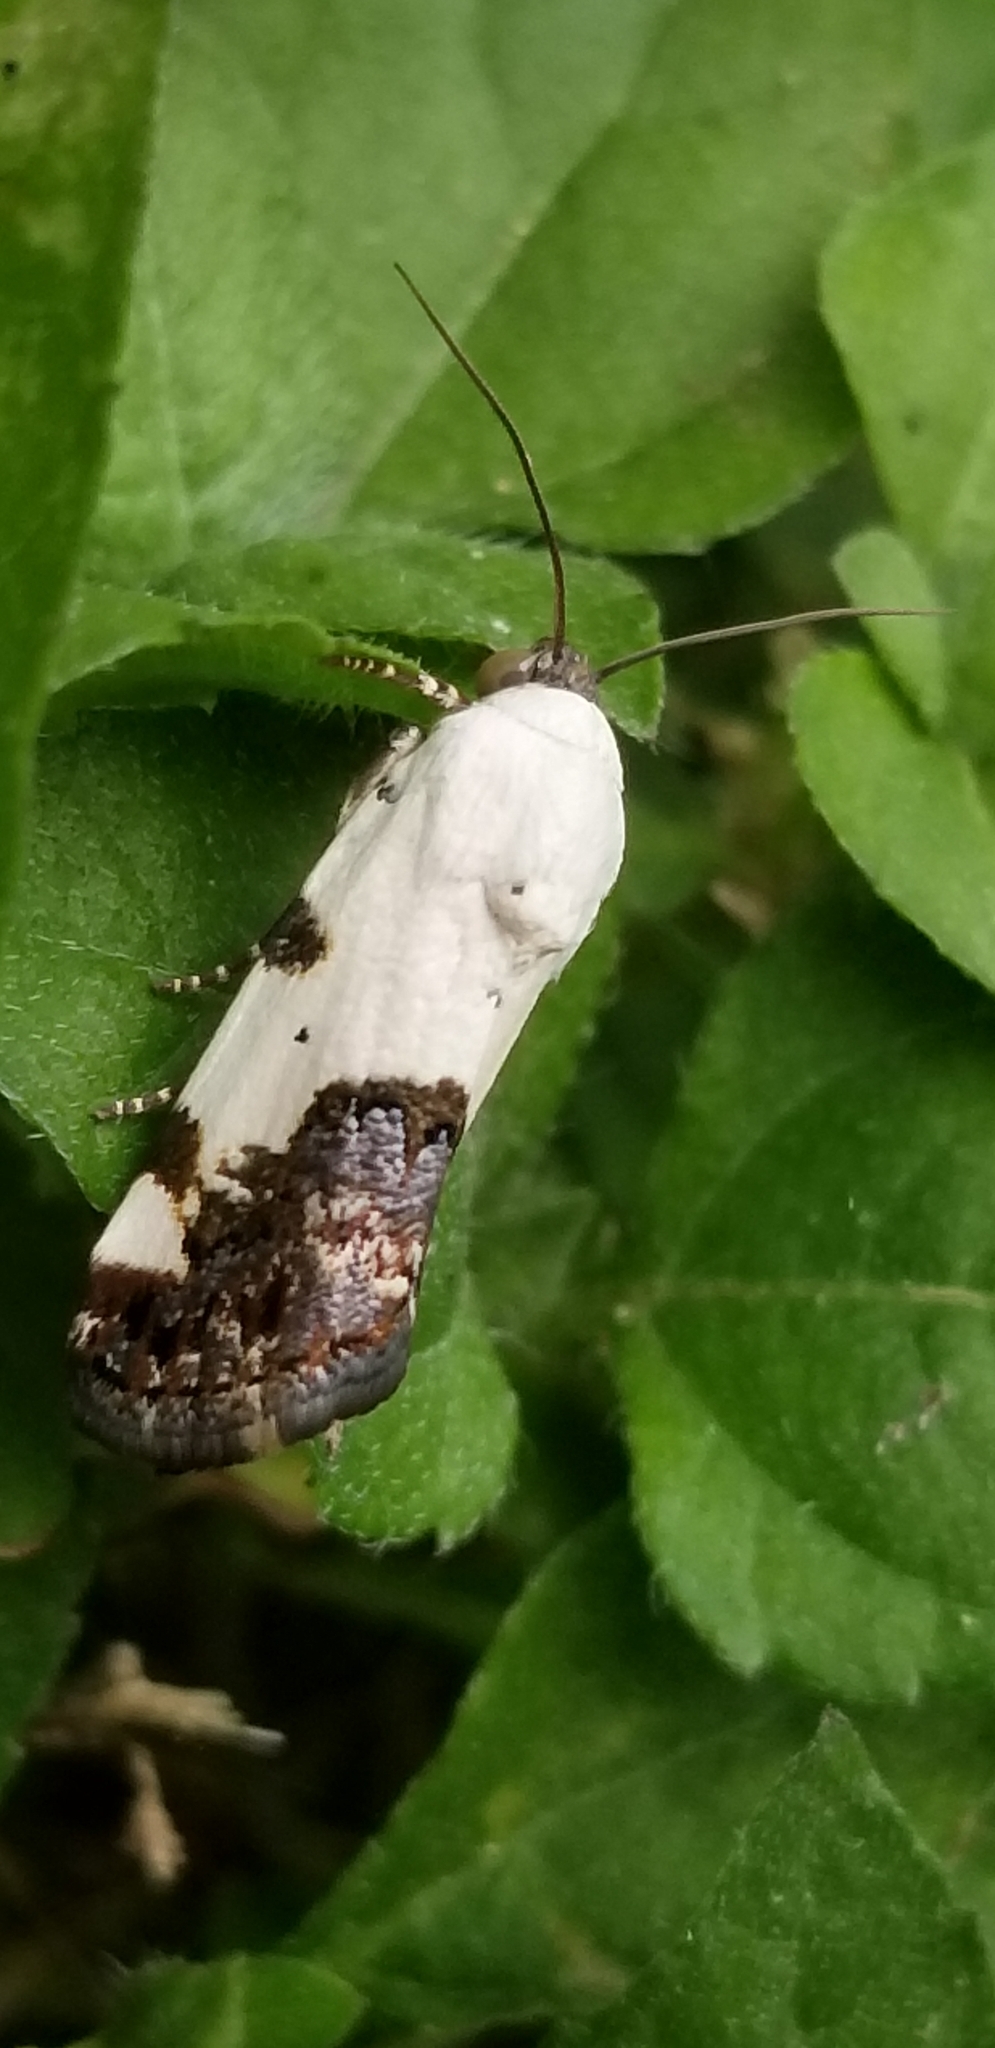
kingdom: Animalia
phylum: Arthropoda
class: Insecta
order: Lepidoptera
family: Noctuidae
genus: Acontia
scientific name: Acontia aprica
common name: Nun
